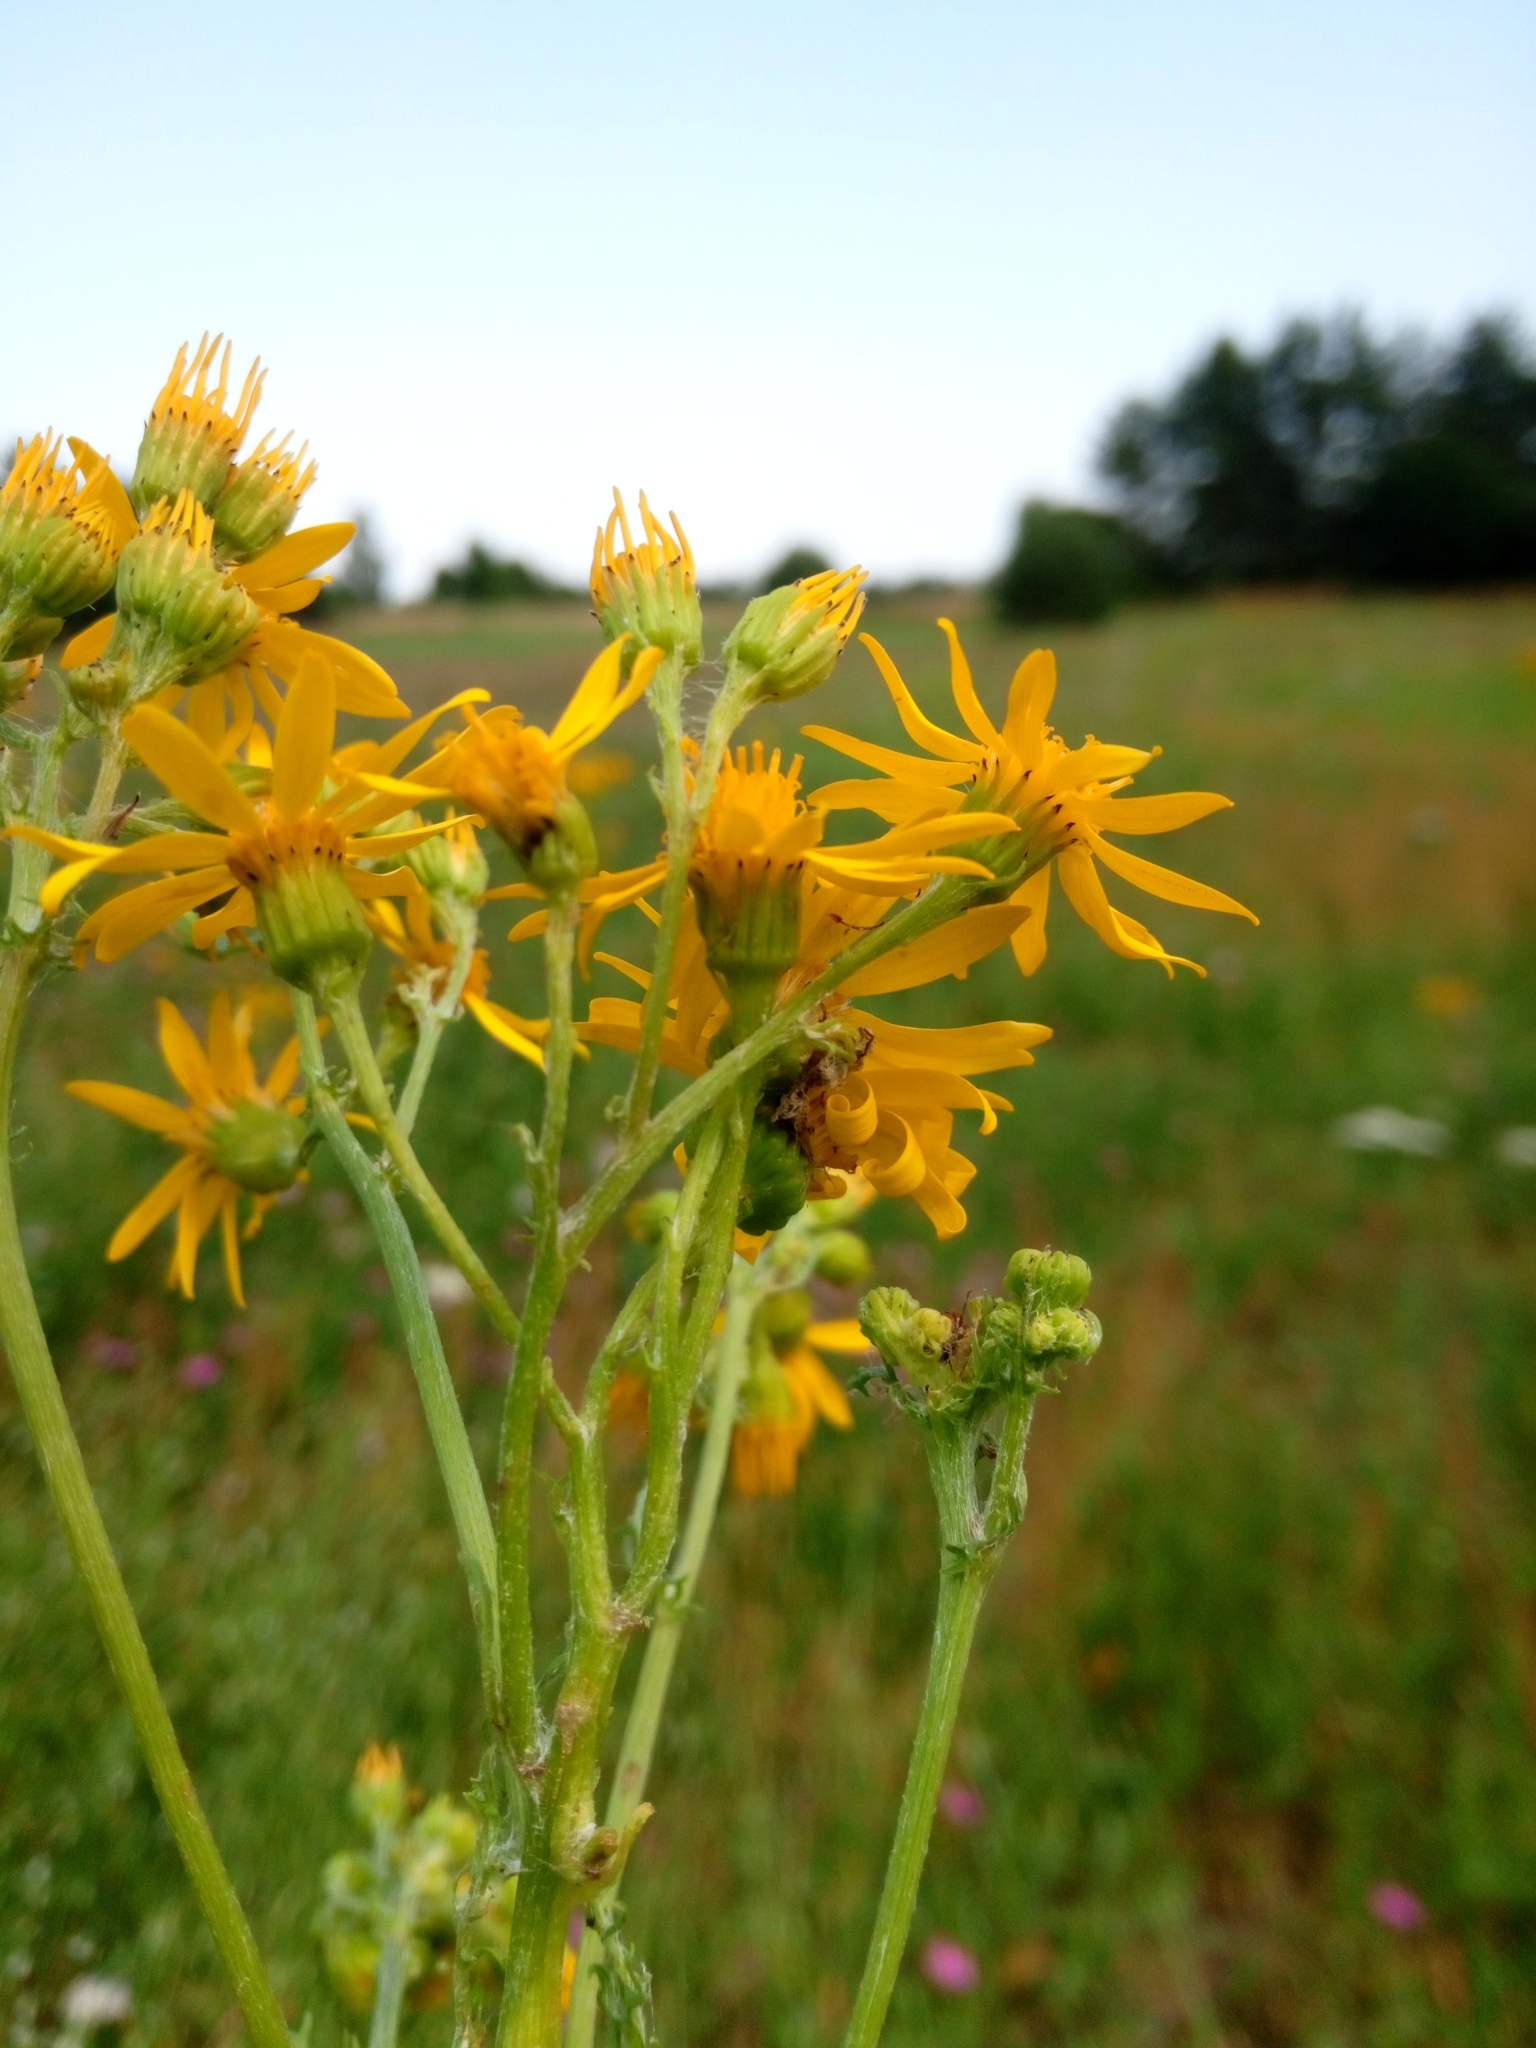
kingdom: Plantae
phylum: Tracheophyta
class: Magnoliopsida
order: Asterales
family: Asteraceae
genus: Jacobaea
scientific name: Jacobaea vulgaris
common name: Stinking willie
